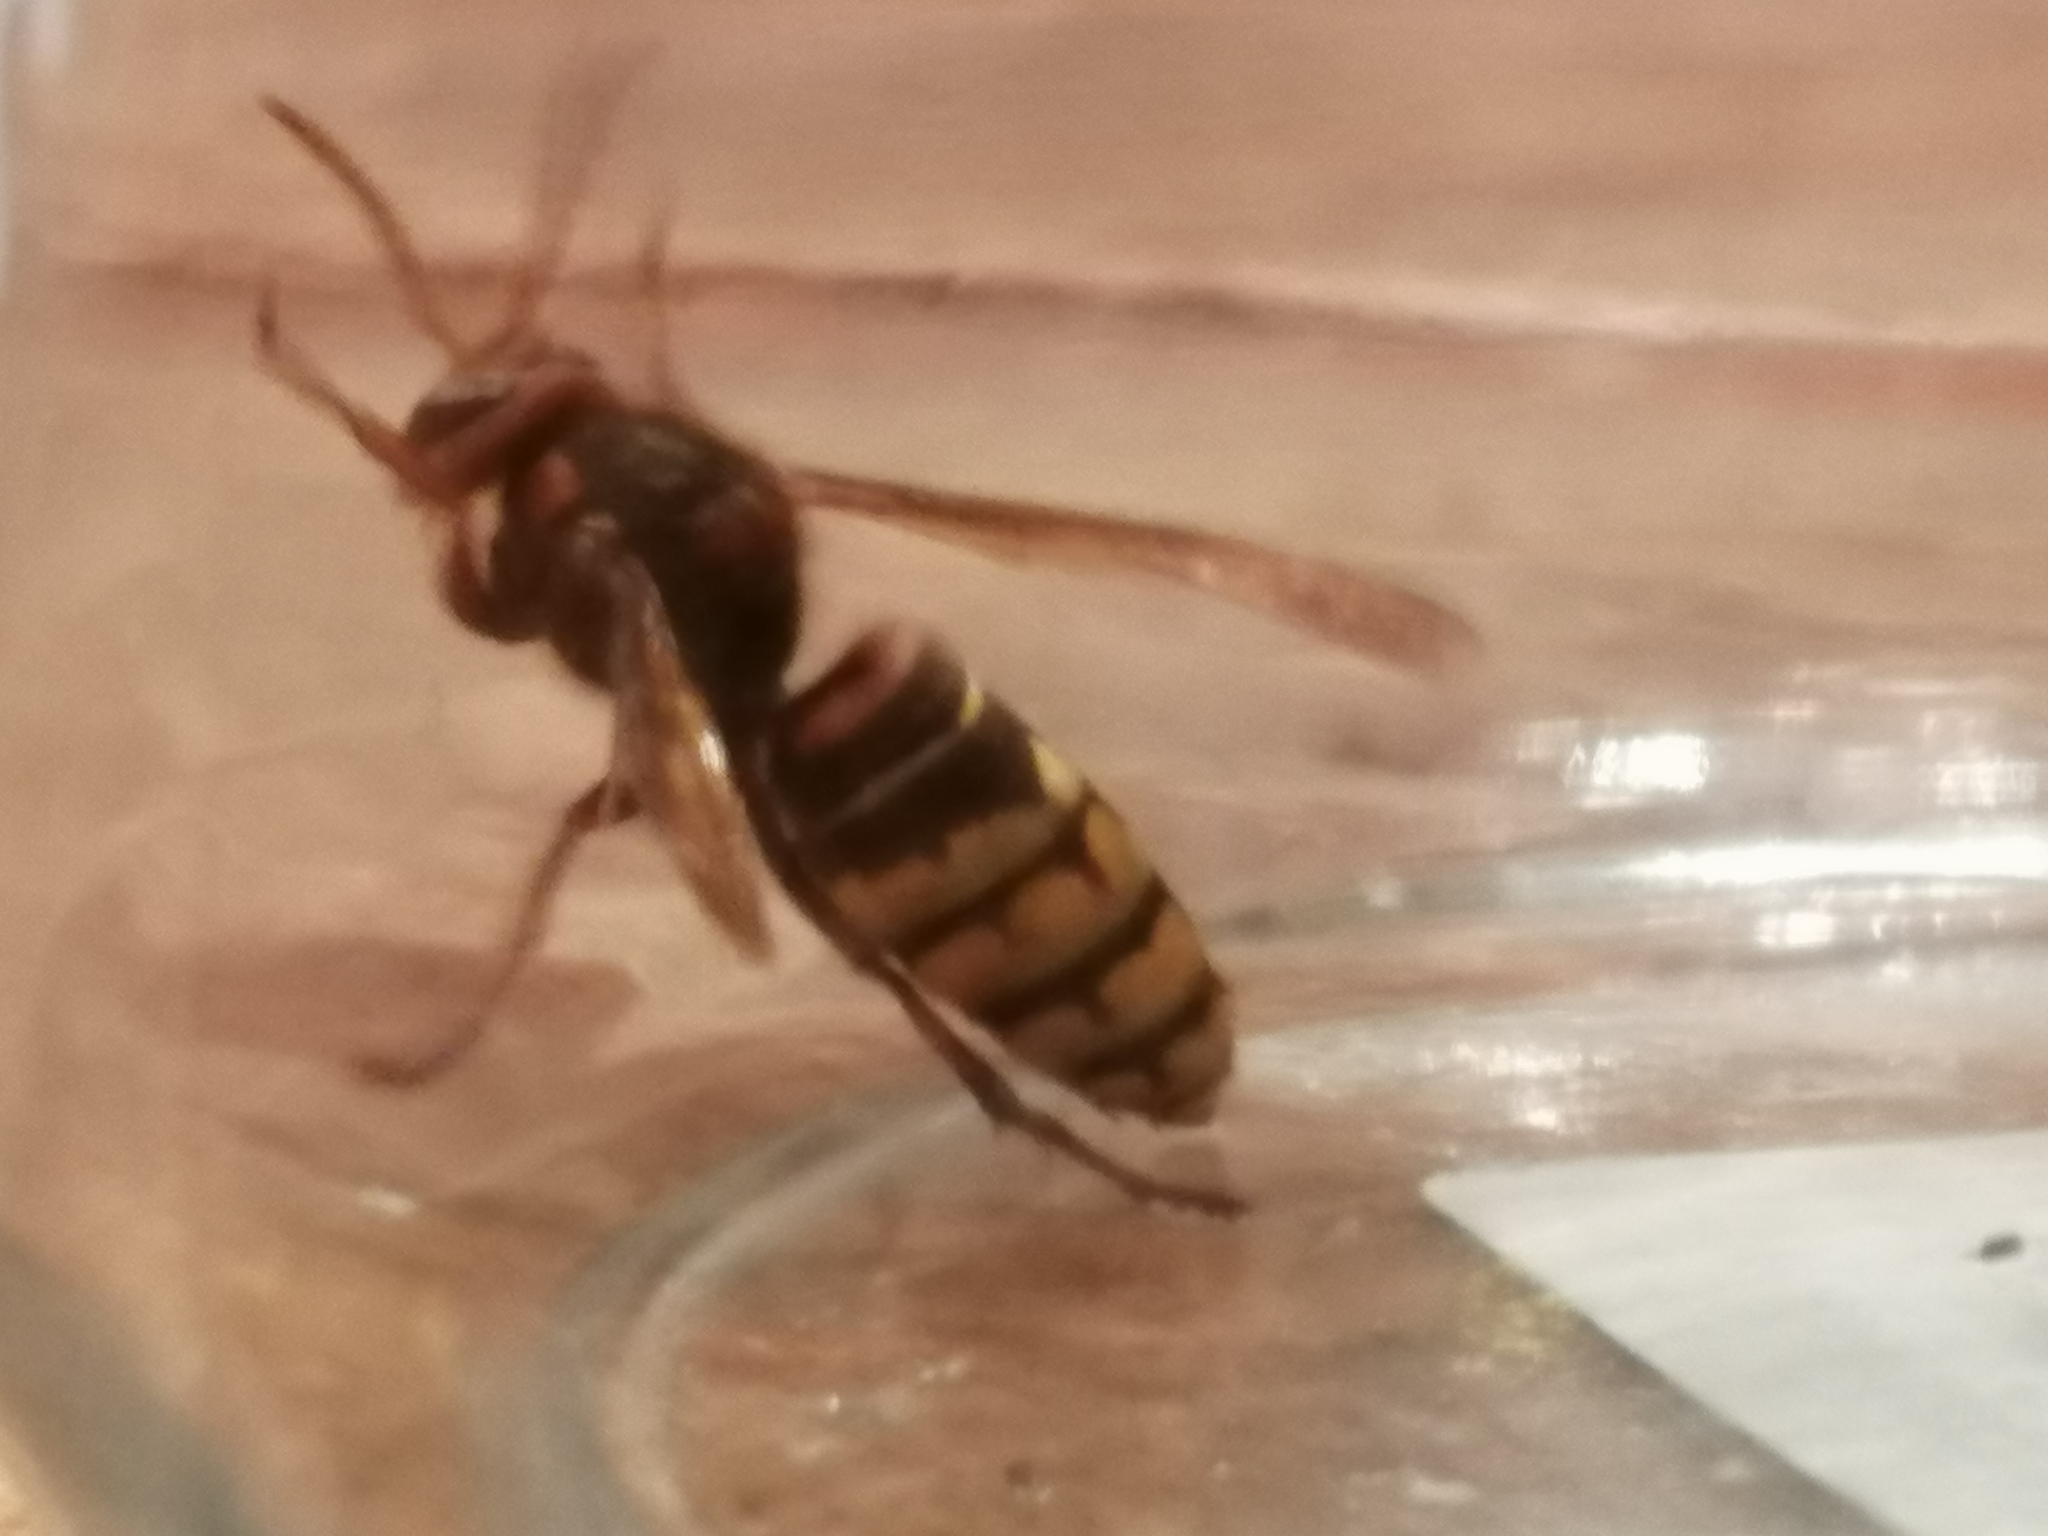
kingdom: Animalia
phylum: Arthropoda
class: Insecta
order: Hymenoptera
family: Vespidae
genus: Vespa
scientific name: Vespa crabro
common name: Hornet
